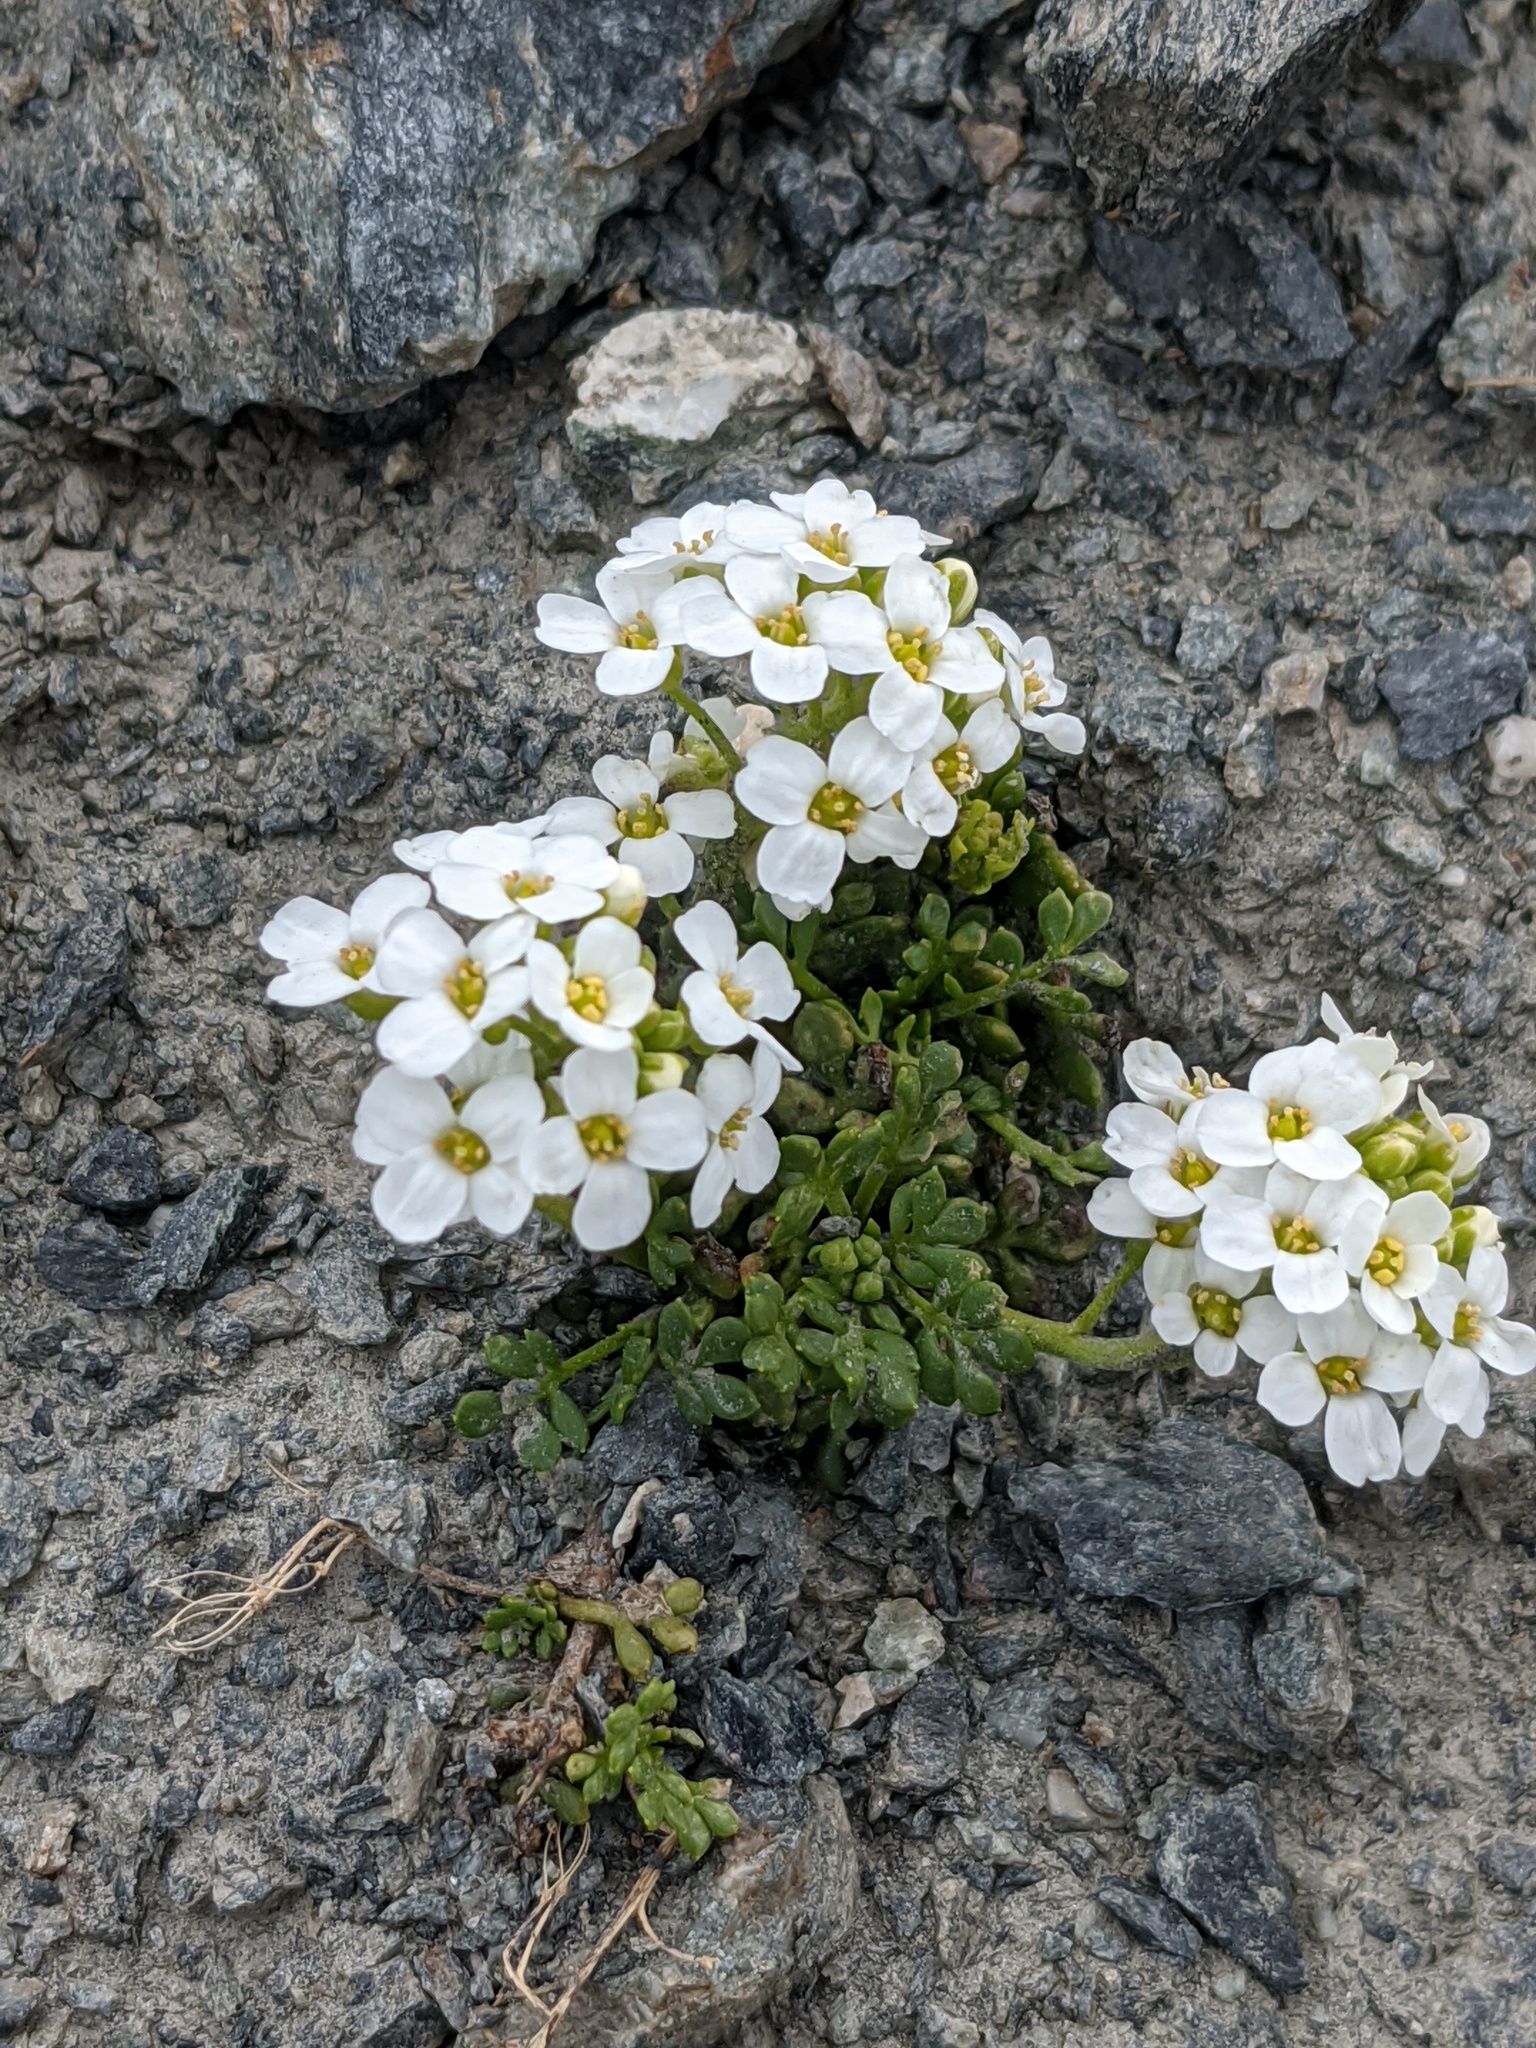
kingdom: Plantae
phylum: Tracheophyta
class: Magnoliopsida
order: Brassicales
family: Brassicaceae
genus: Hornungia
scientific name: Hornungia alpina
